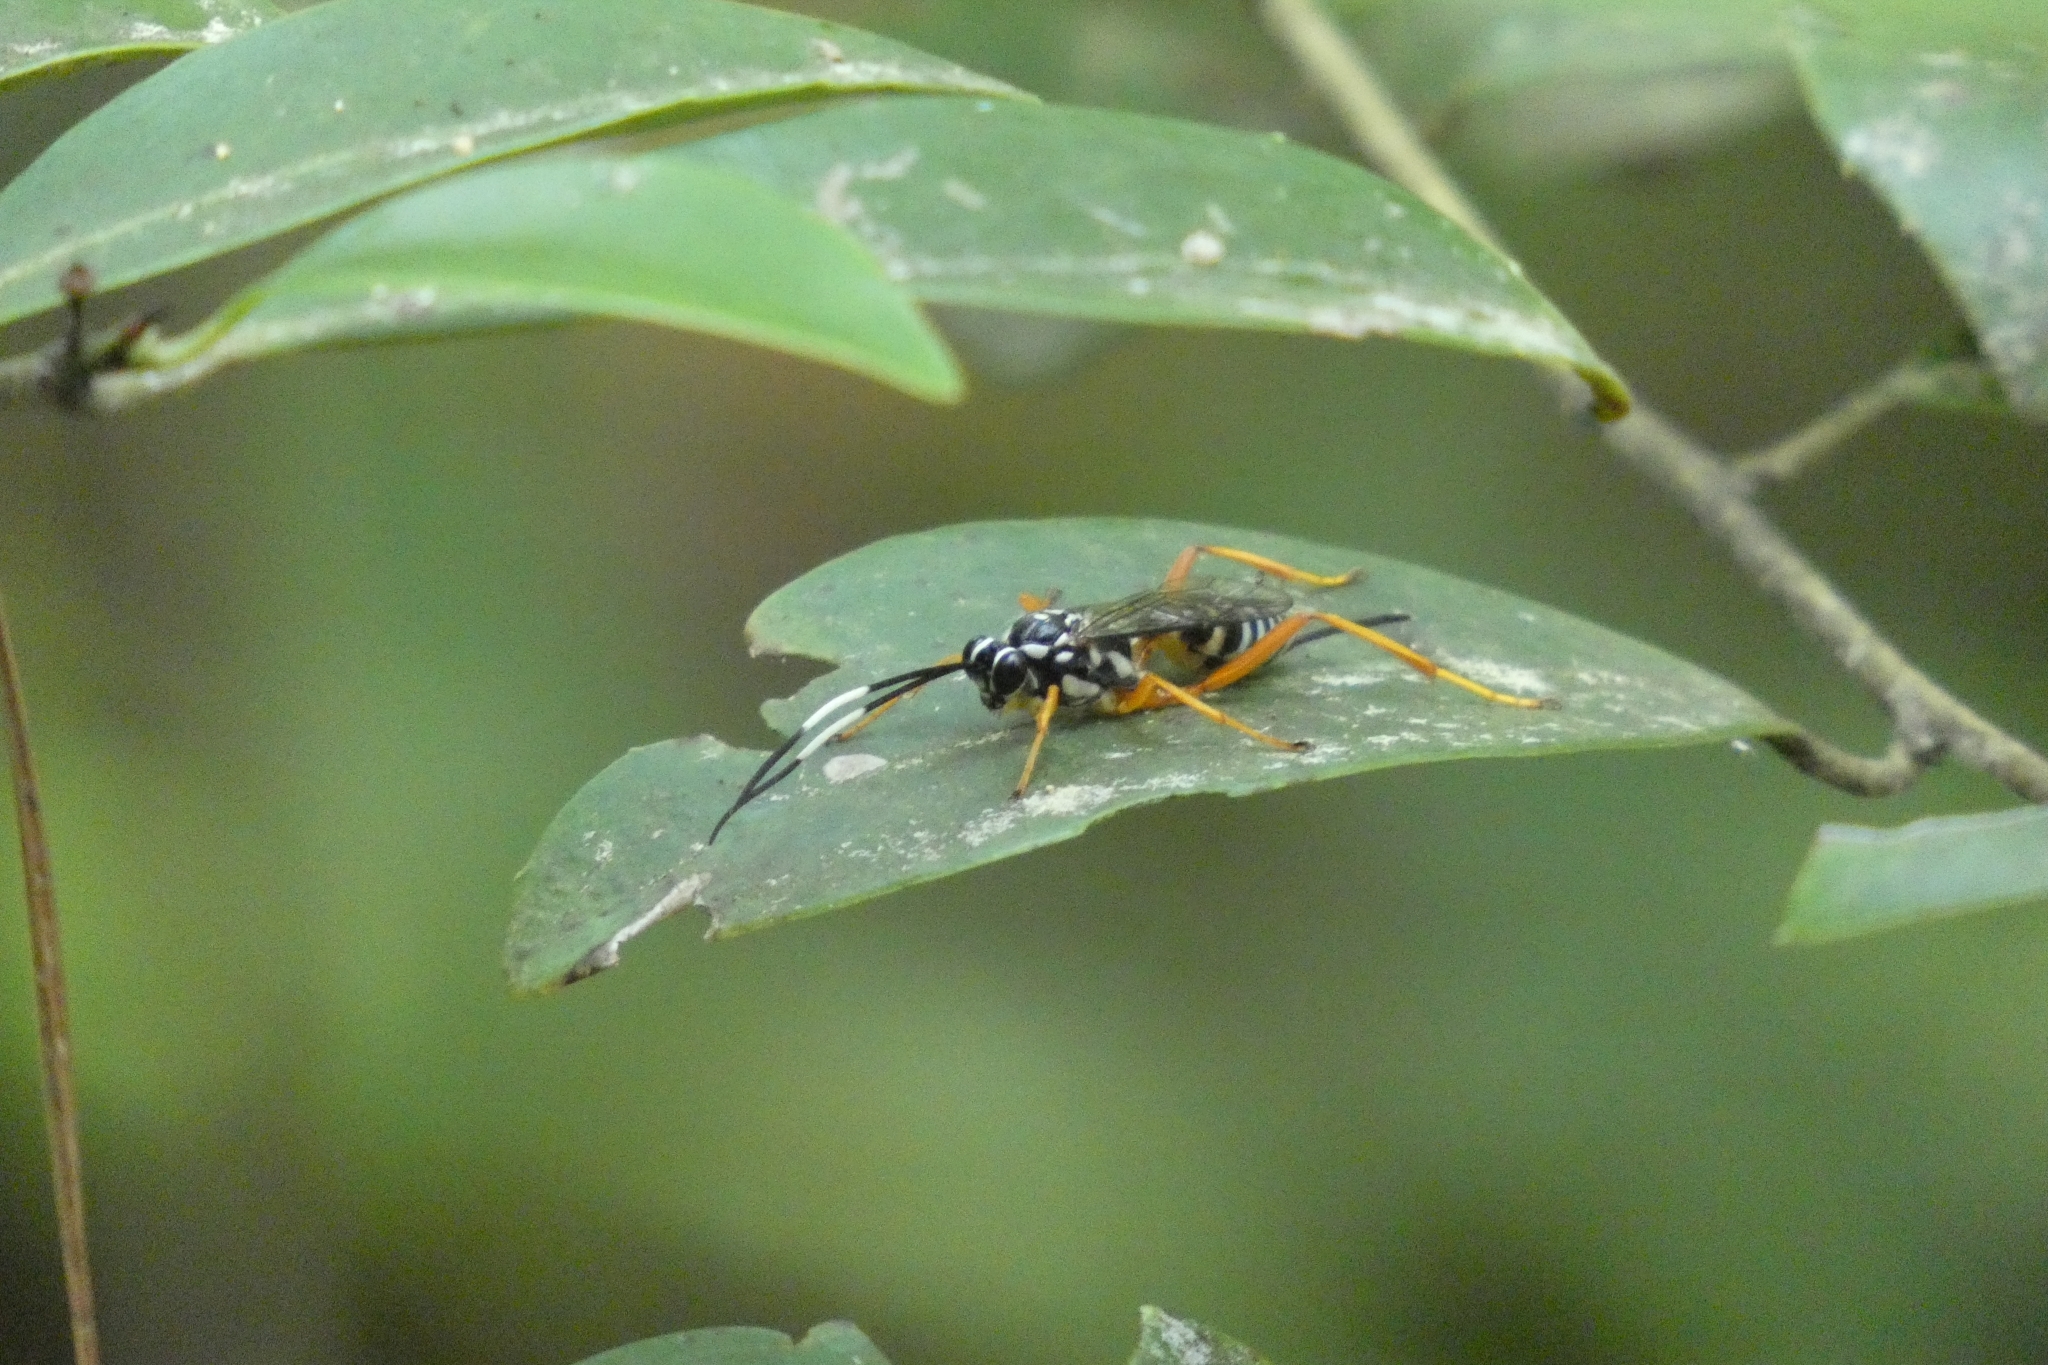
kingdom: Animalia
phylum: Arthropoda
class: Insecta
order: Hymenoptera
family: Ichneumonidae
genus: Cryptanura
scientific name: Cryptanura spinaria
